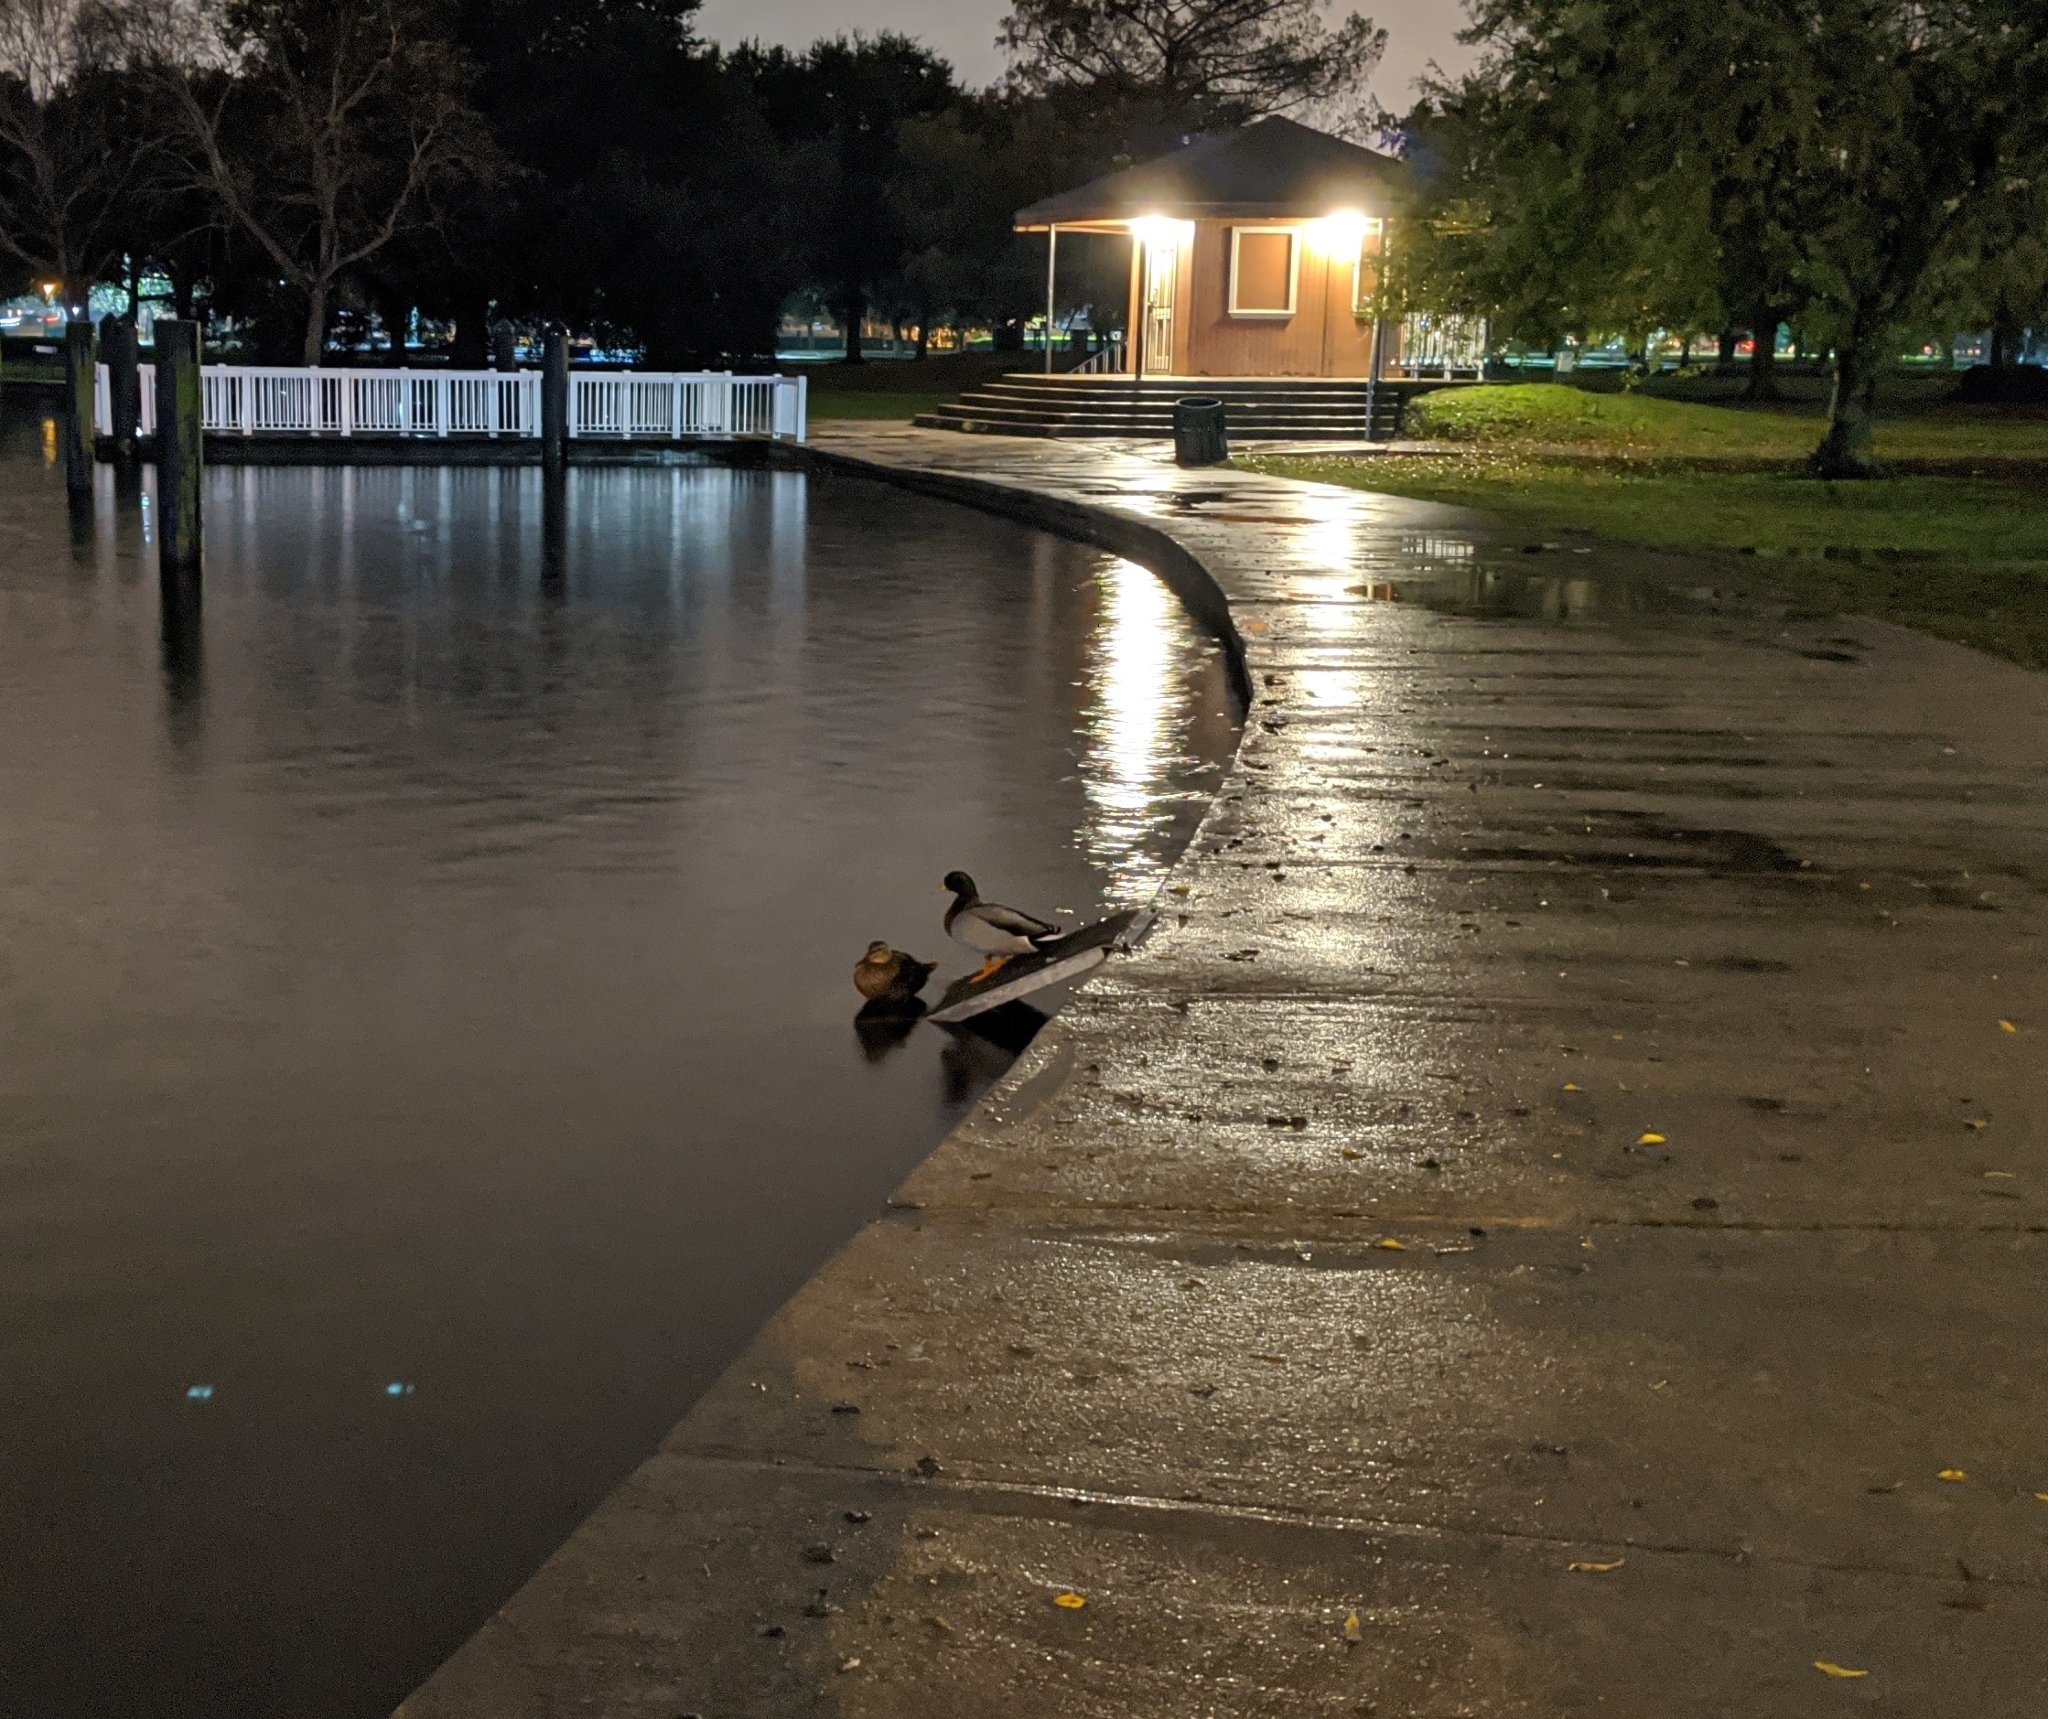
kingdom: Animalia
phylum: Chordata
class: Aves
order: Anseriformes
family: Anatidae
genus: Anas
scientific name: Anas platyrhynchos
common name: Mallard
